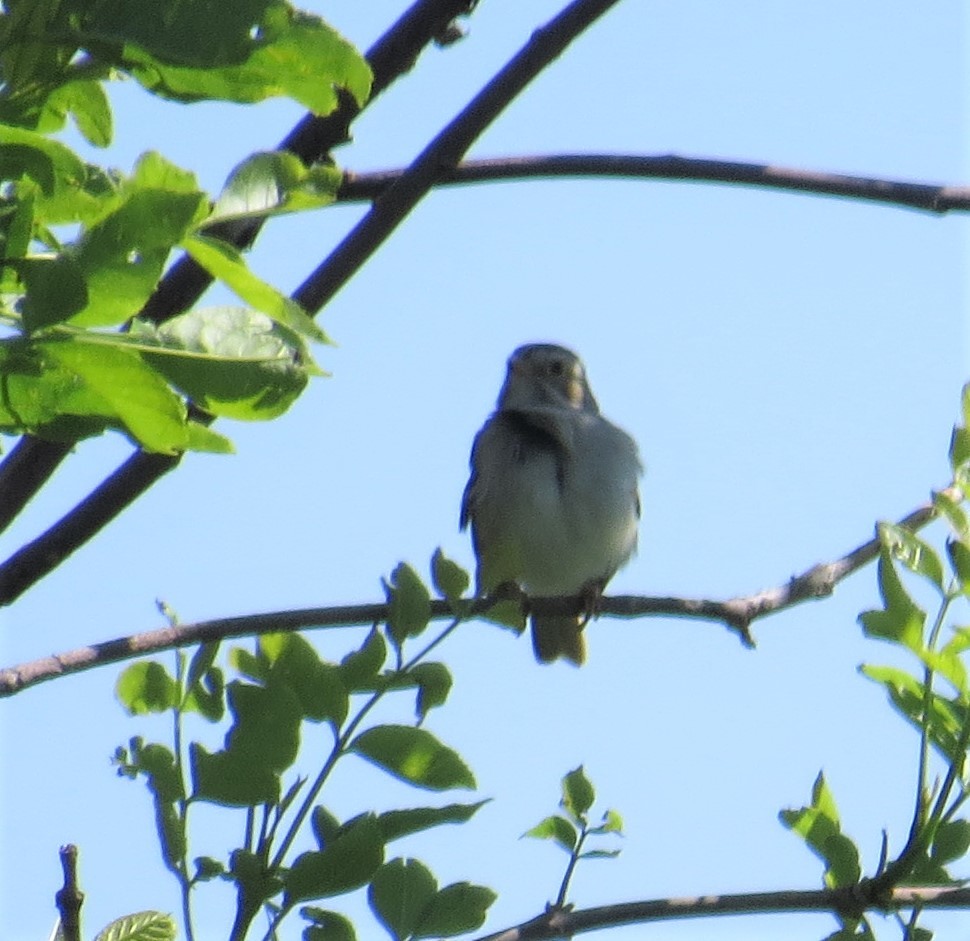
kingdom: Animalia
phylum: Chordata
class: Aves
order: Passeriformes
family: Passerellidae
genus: Spizella
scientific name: Spizella pallida
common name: Clay-colored sparrow
